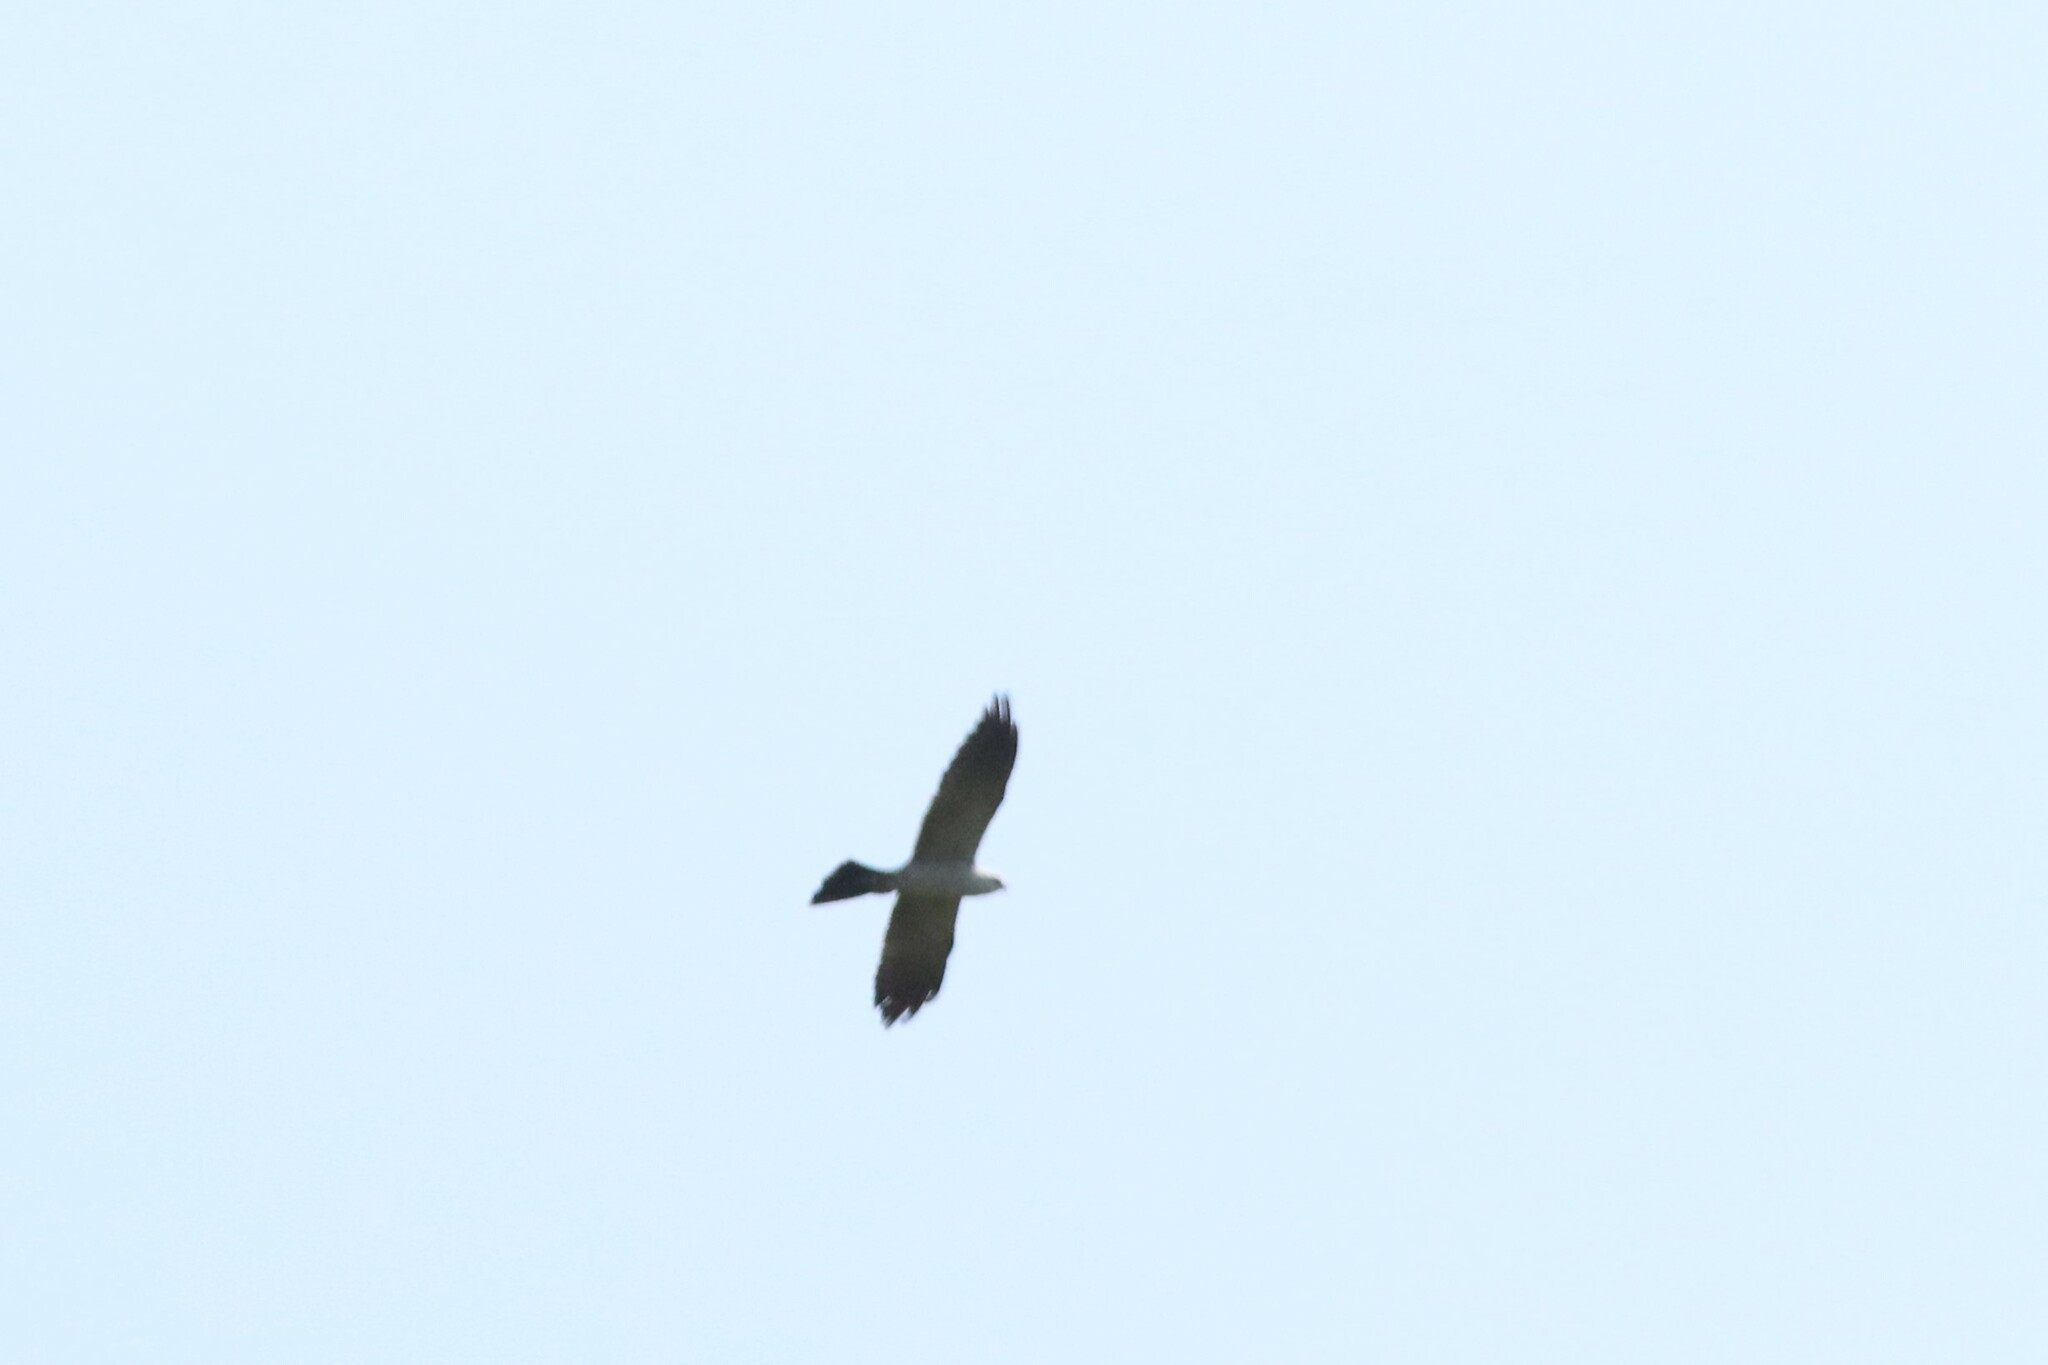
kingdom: Animalia
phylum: Chordata
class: Aves
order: Accipitriformes
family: Accipitridae
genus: Ictinia
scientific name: Ictinia mississippiensis
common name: Mississippi kite
